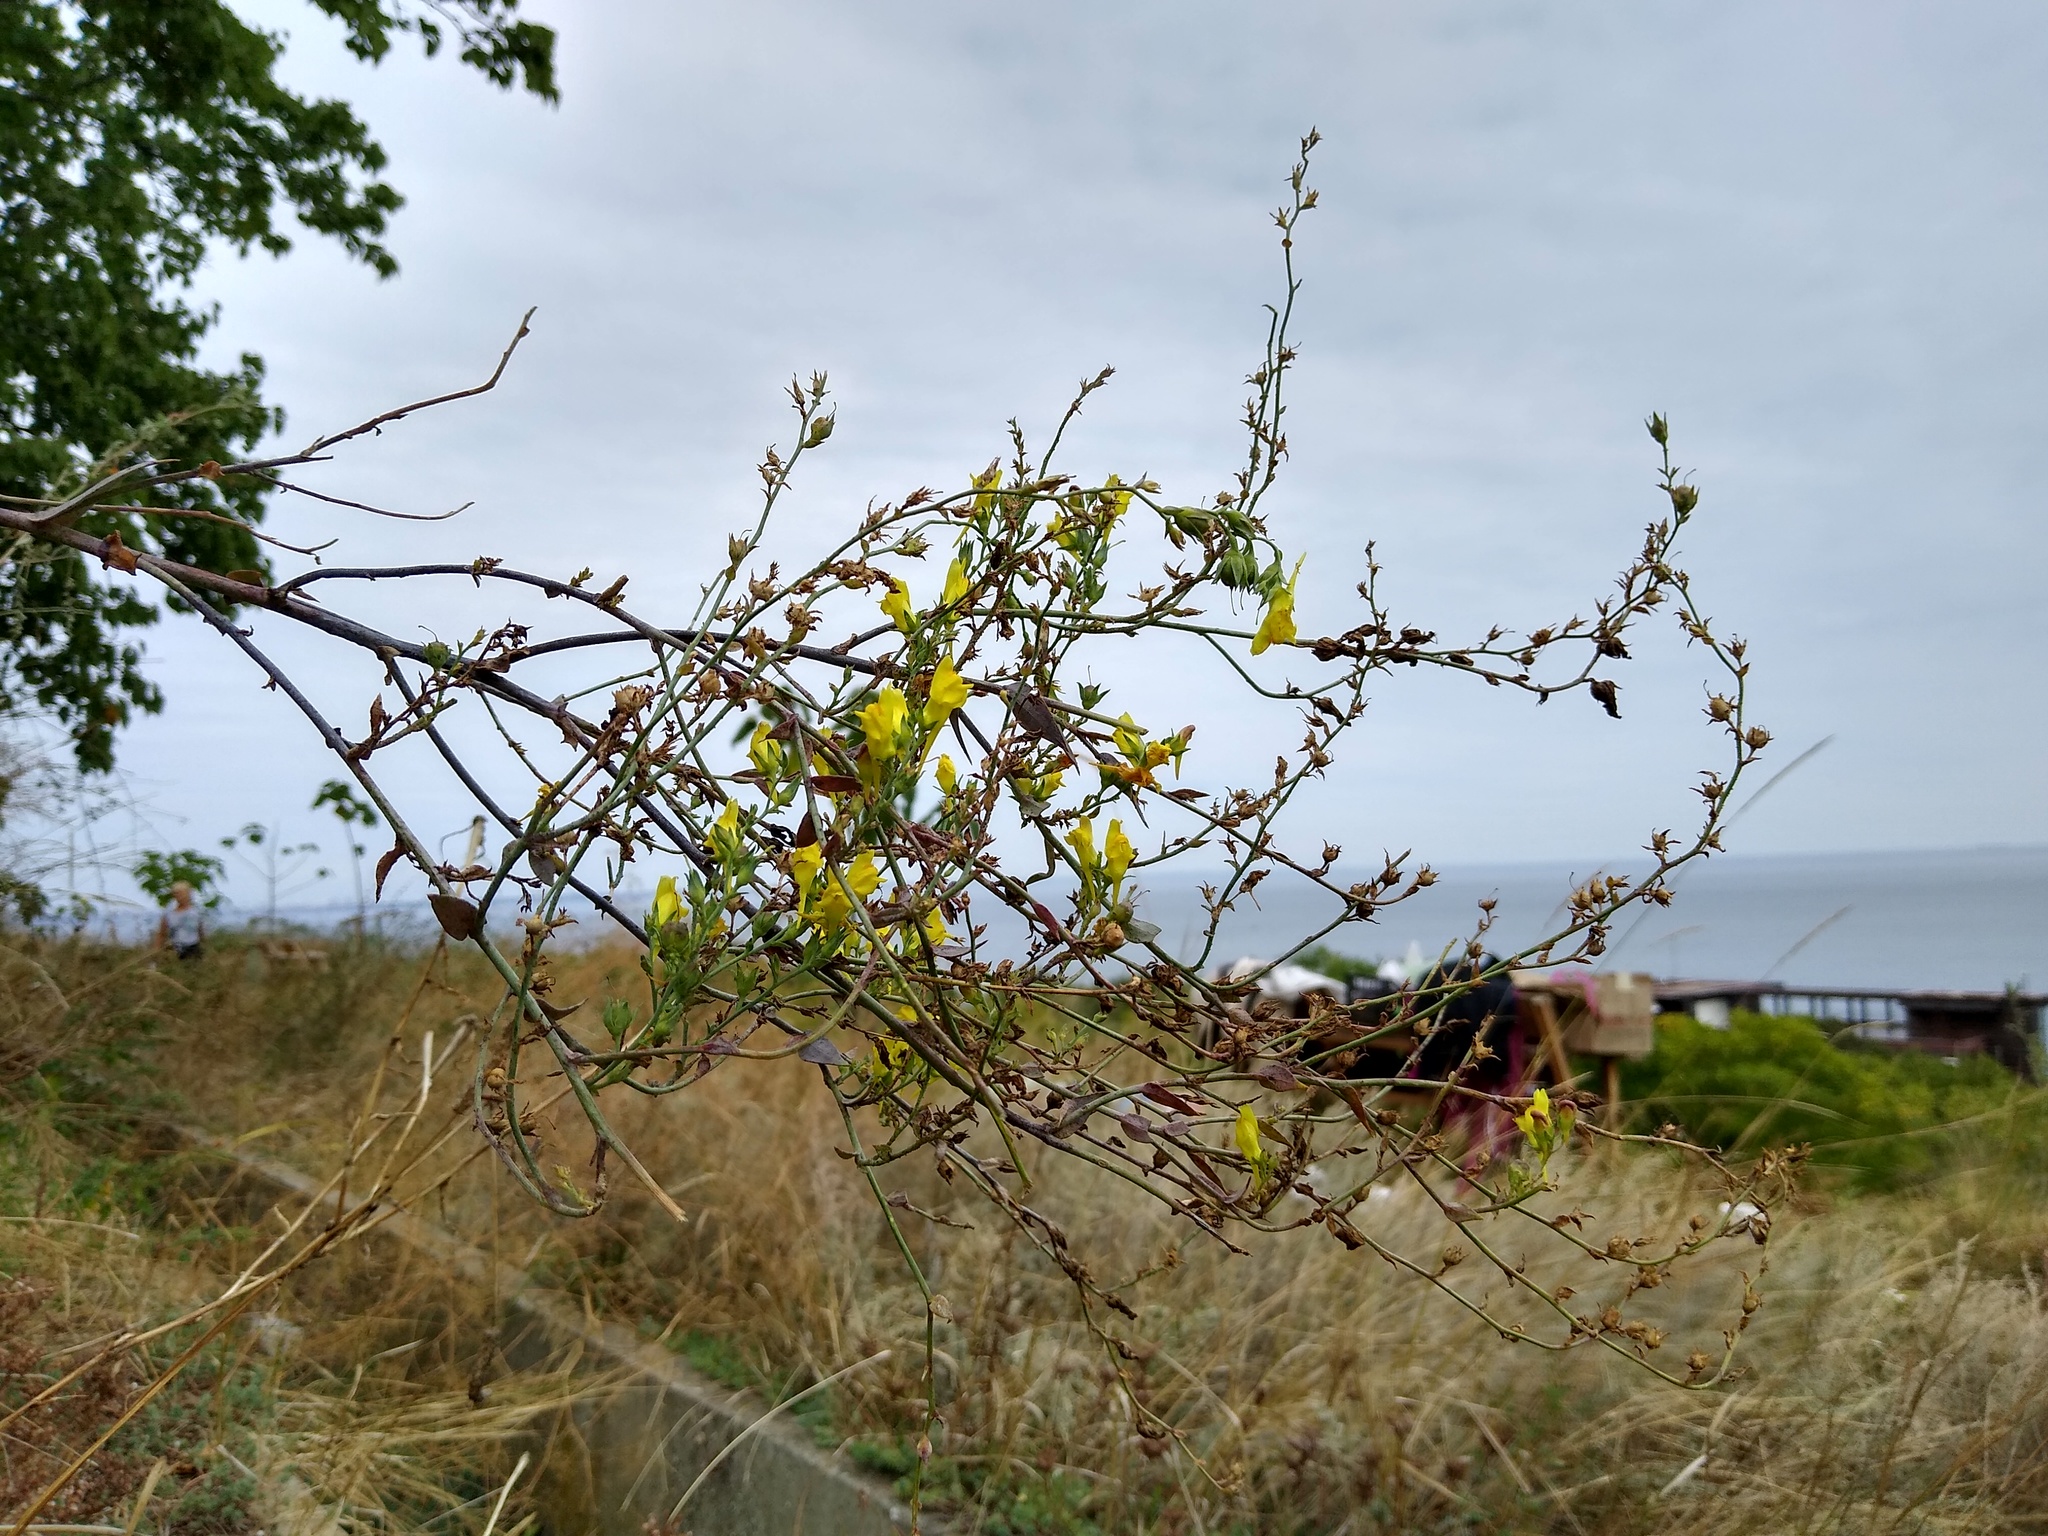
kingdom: Plantae
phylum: Tracheophyta
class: Magnoliopsida
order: Lamiales
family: Plantaginaceae
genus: Linaria
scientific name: Linaria genistifolia
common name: Broomleaf toadflax
